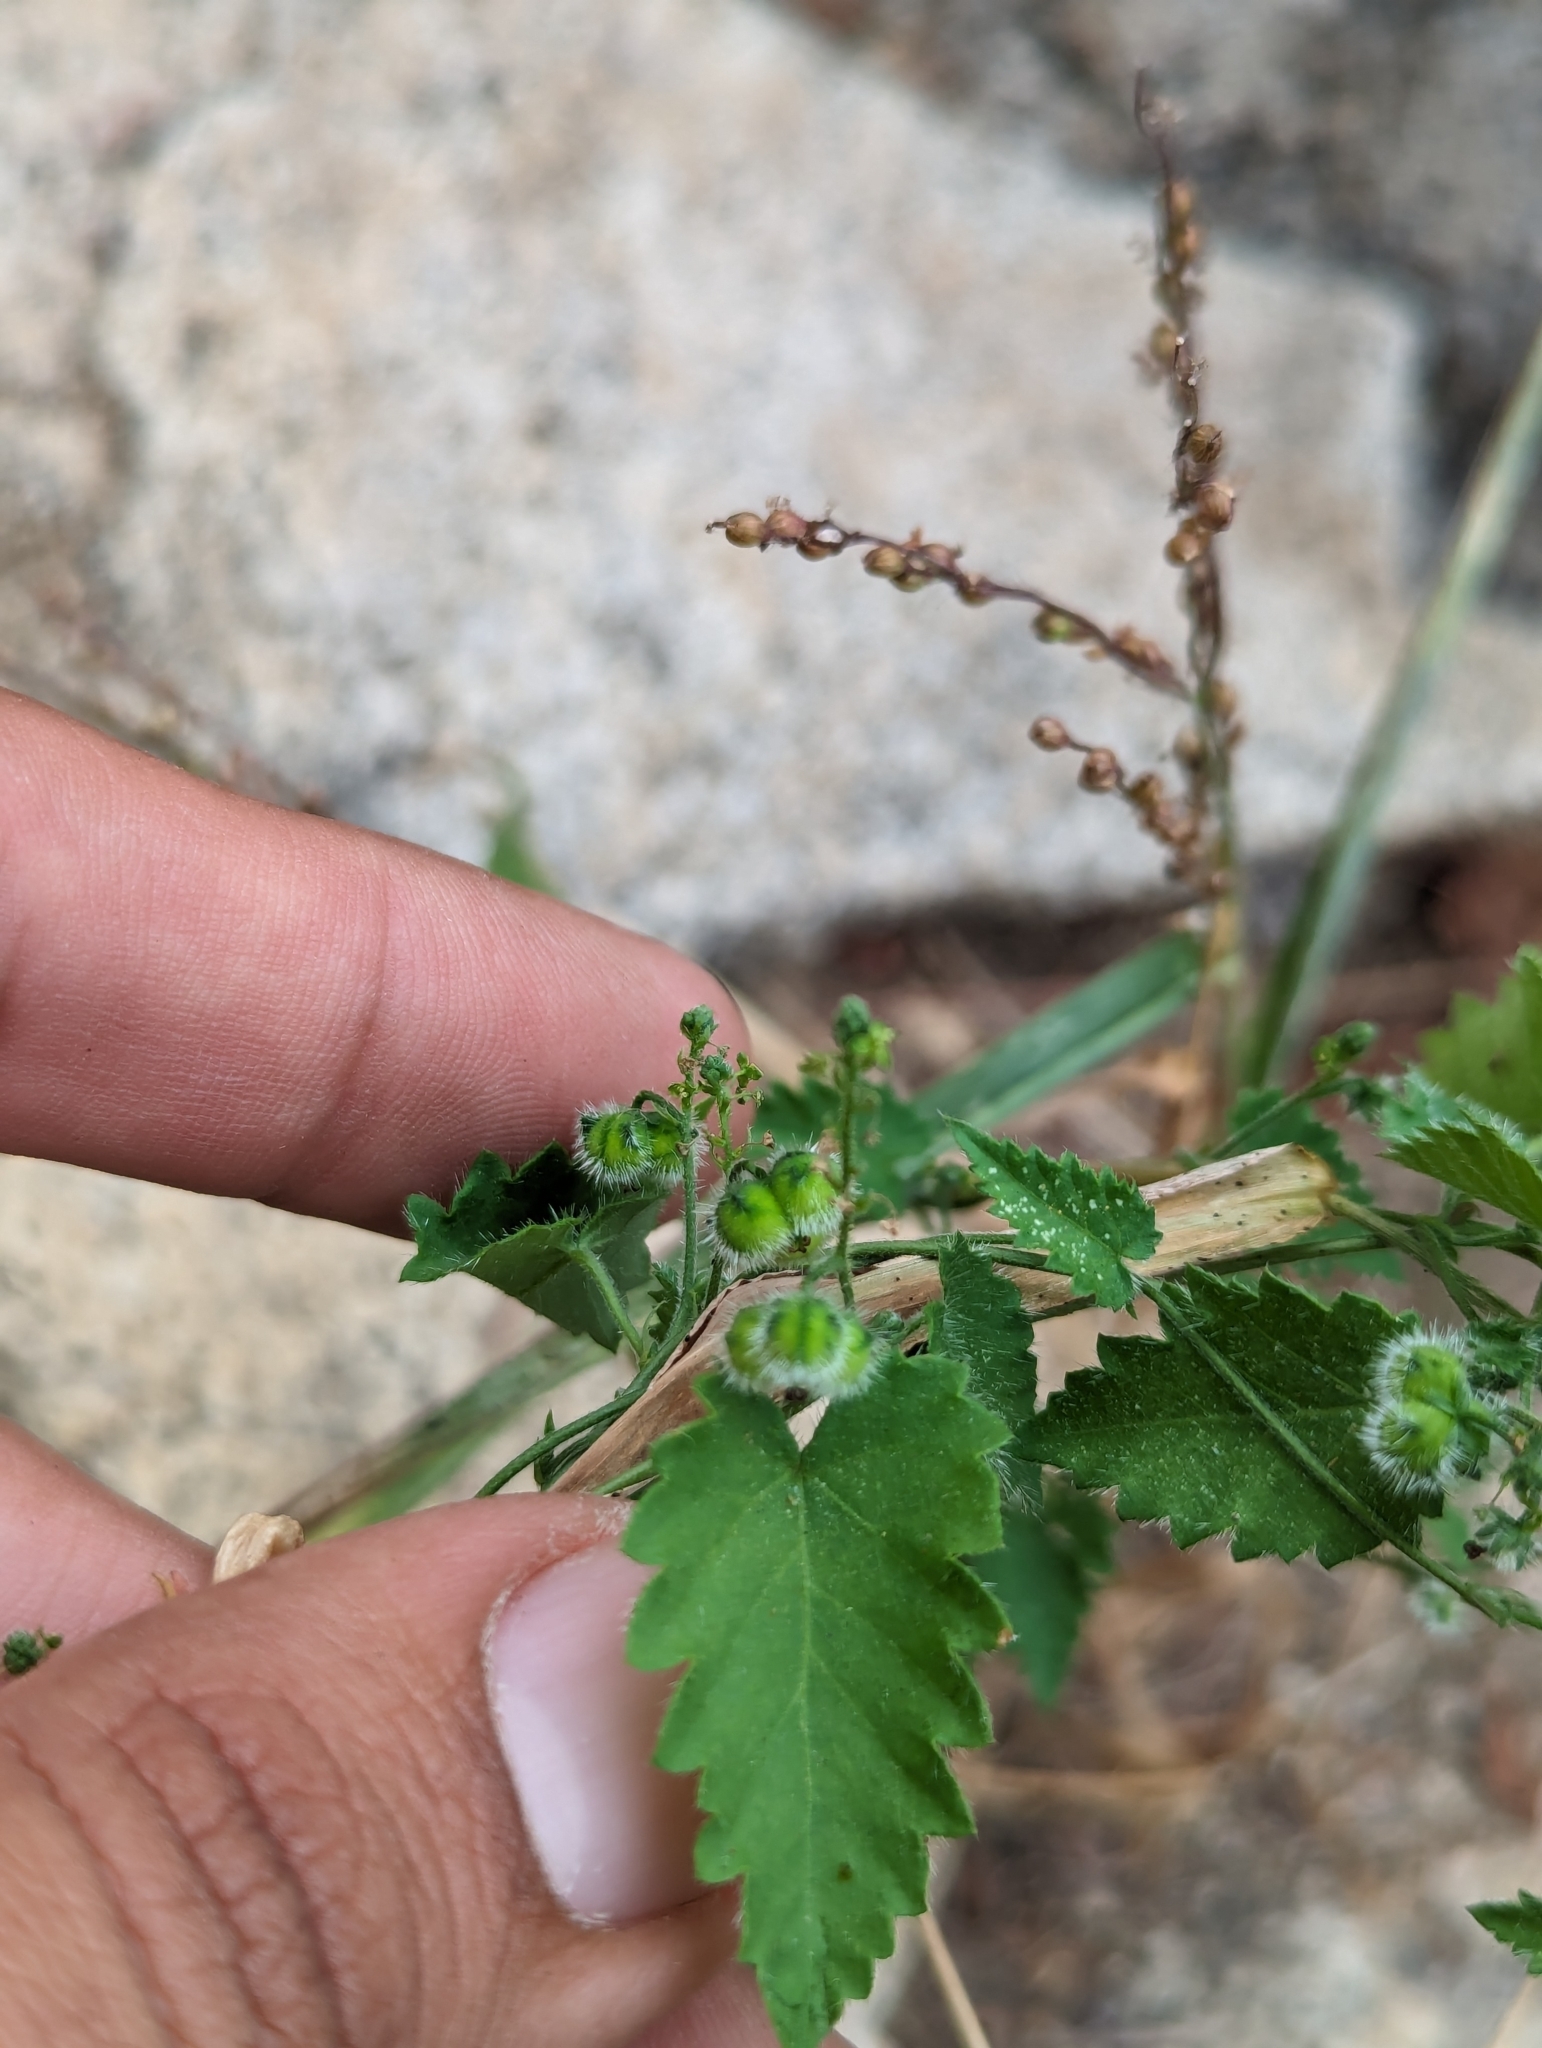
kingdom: Plantae
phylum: Tracheophyta
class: Magnoliopsida
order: Malpighiales
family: Euphorbiaceae
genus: Tragia
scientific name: Tragia jonesii
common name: Jones' noseburn
